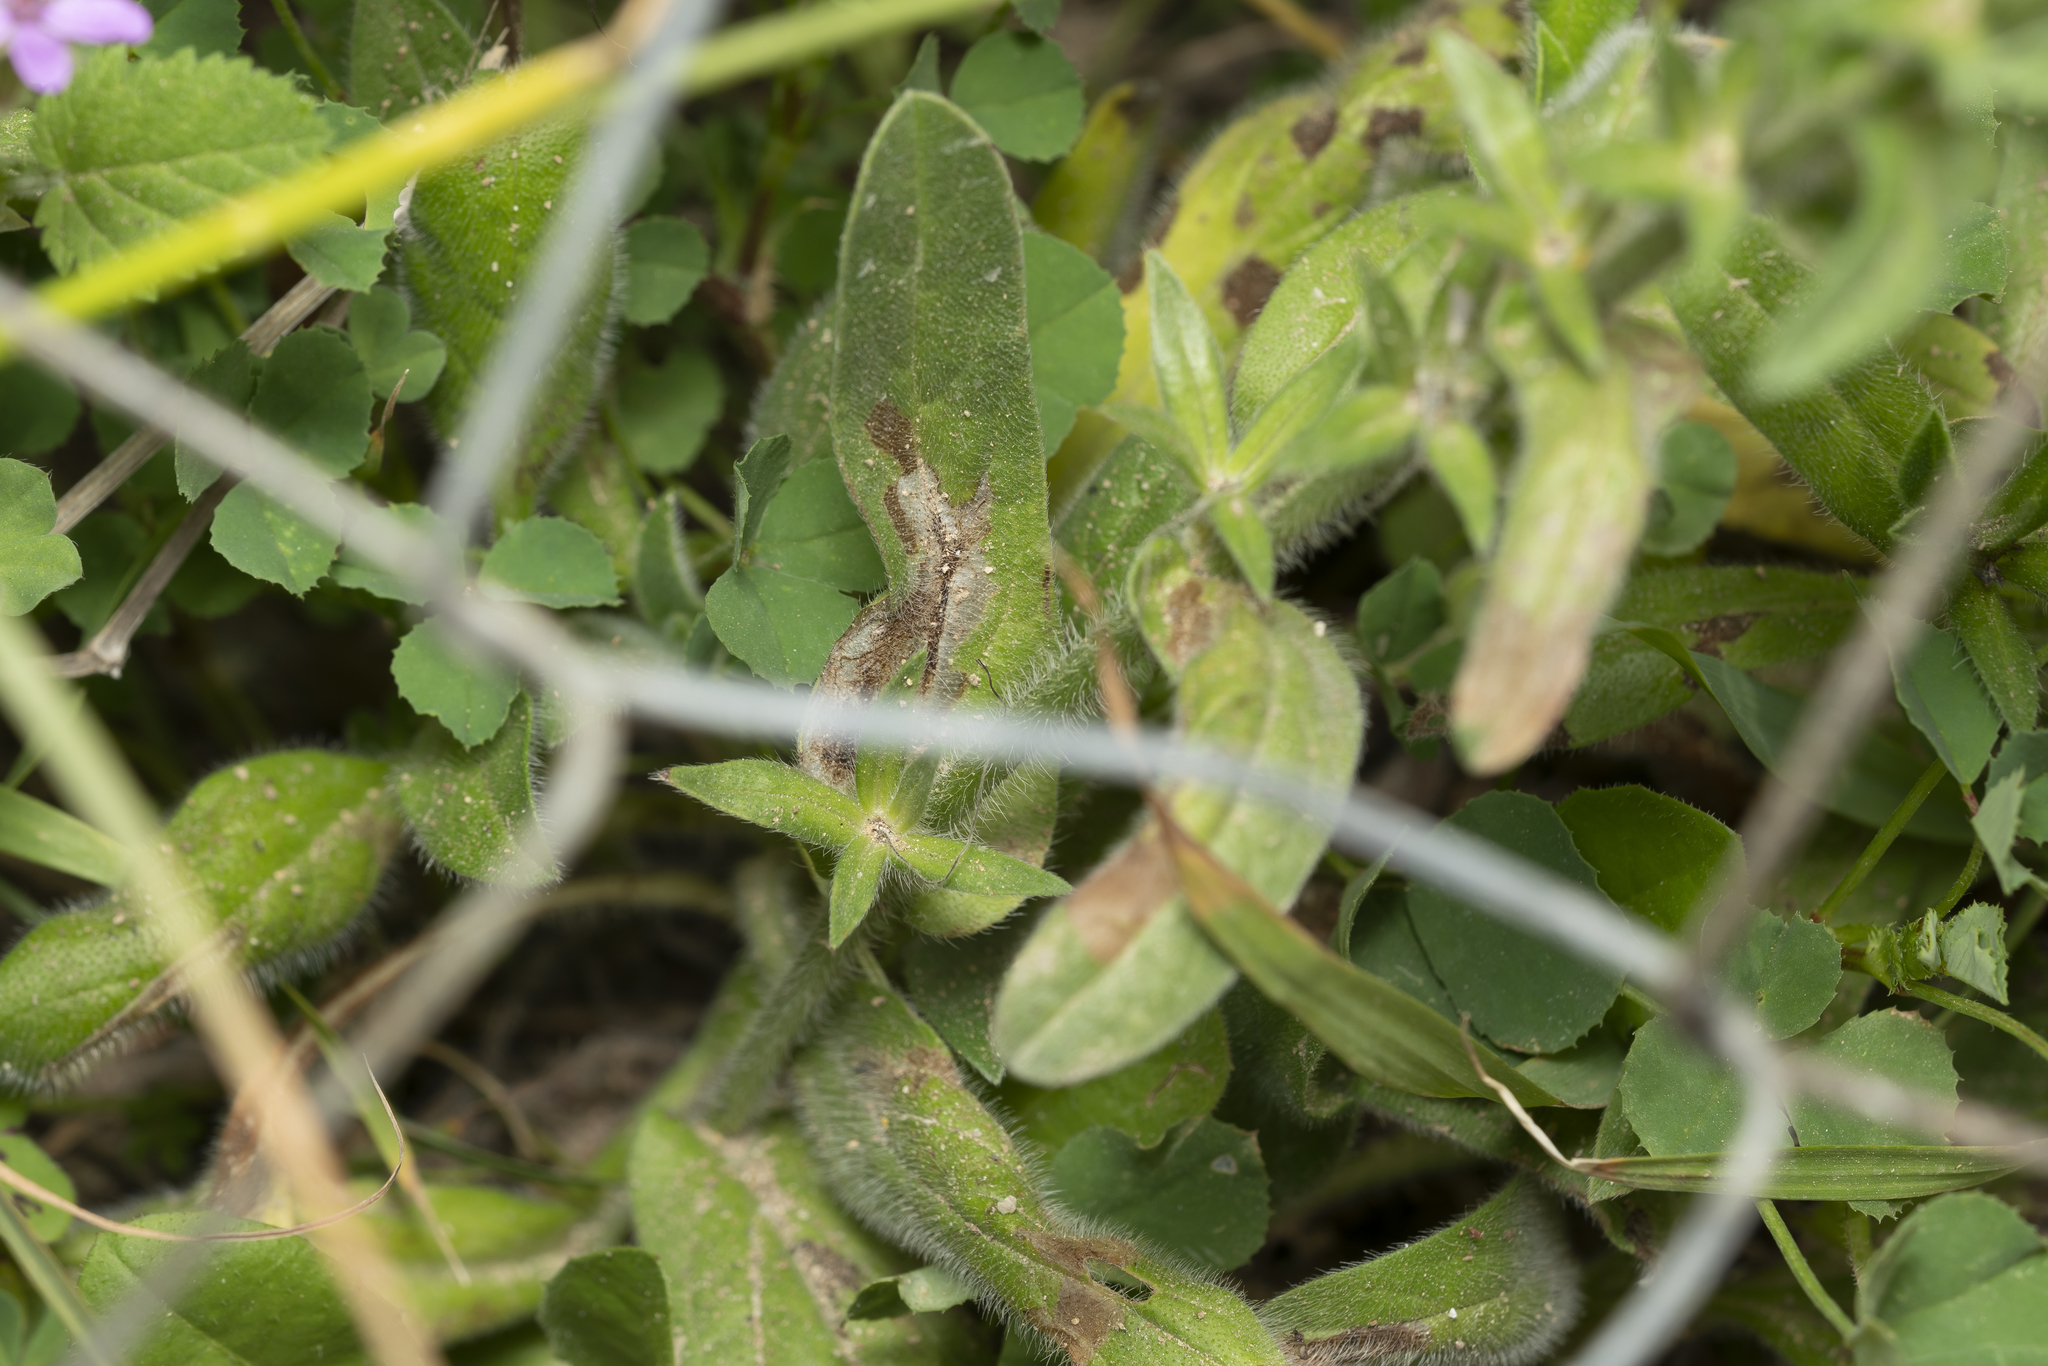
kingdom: Plantae
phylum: Tracheophyta
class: Magnoliopsida
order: Boraginales
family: Boraginaceae
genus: Echium
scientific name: Echium plantagineum
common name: Purple viper's-bugloss
